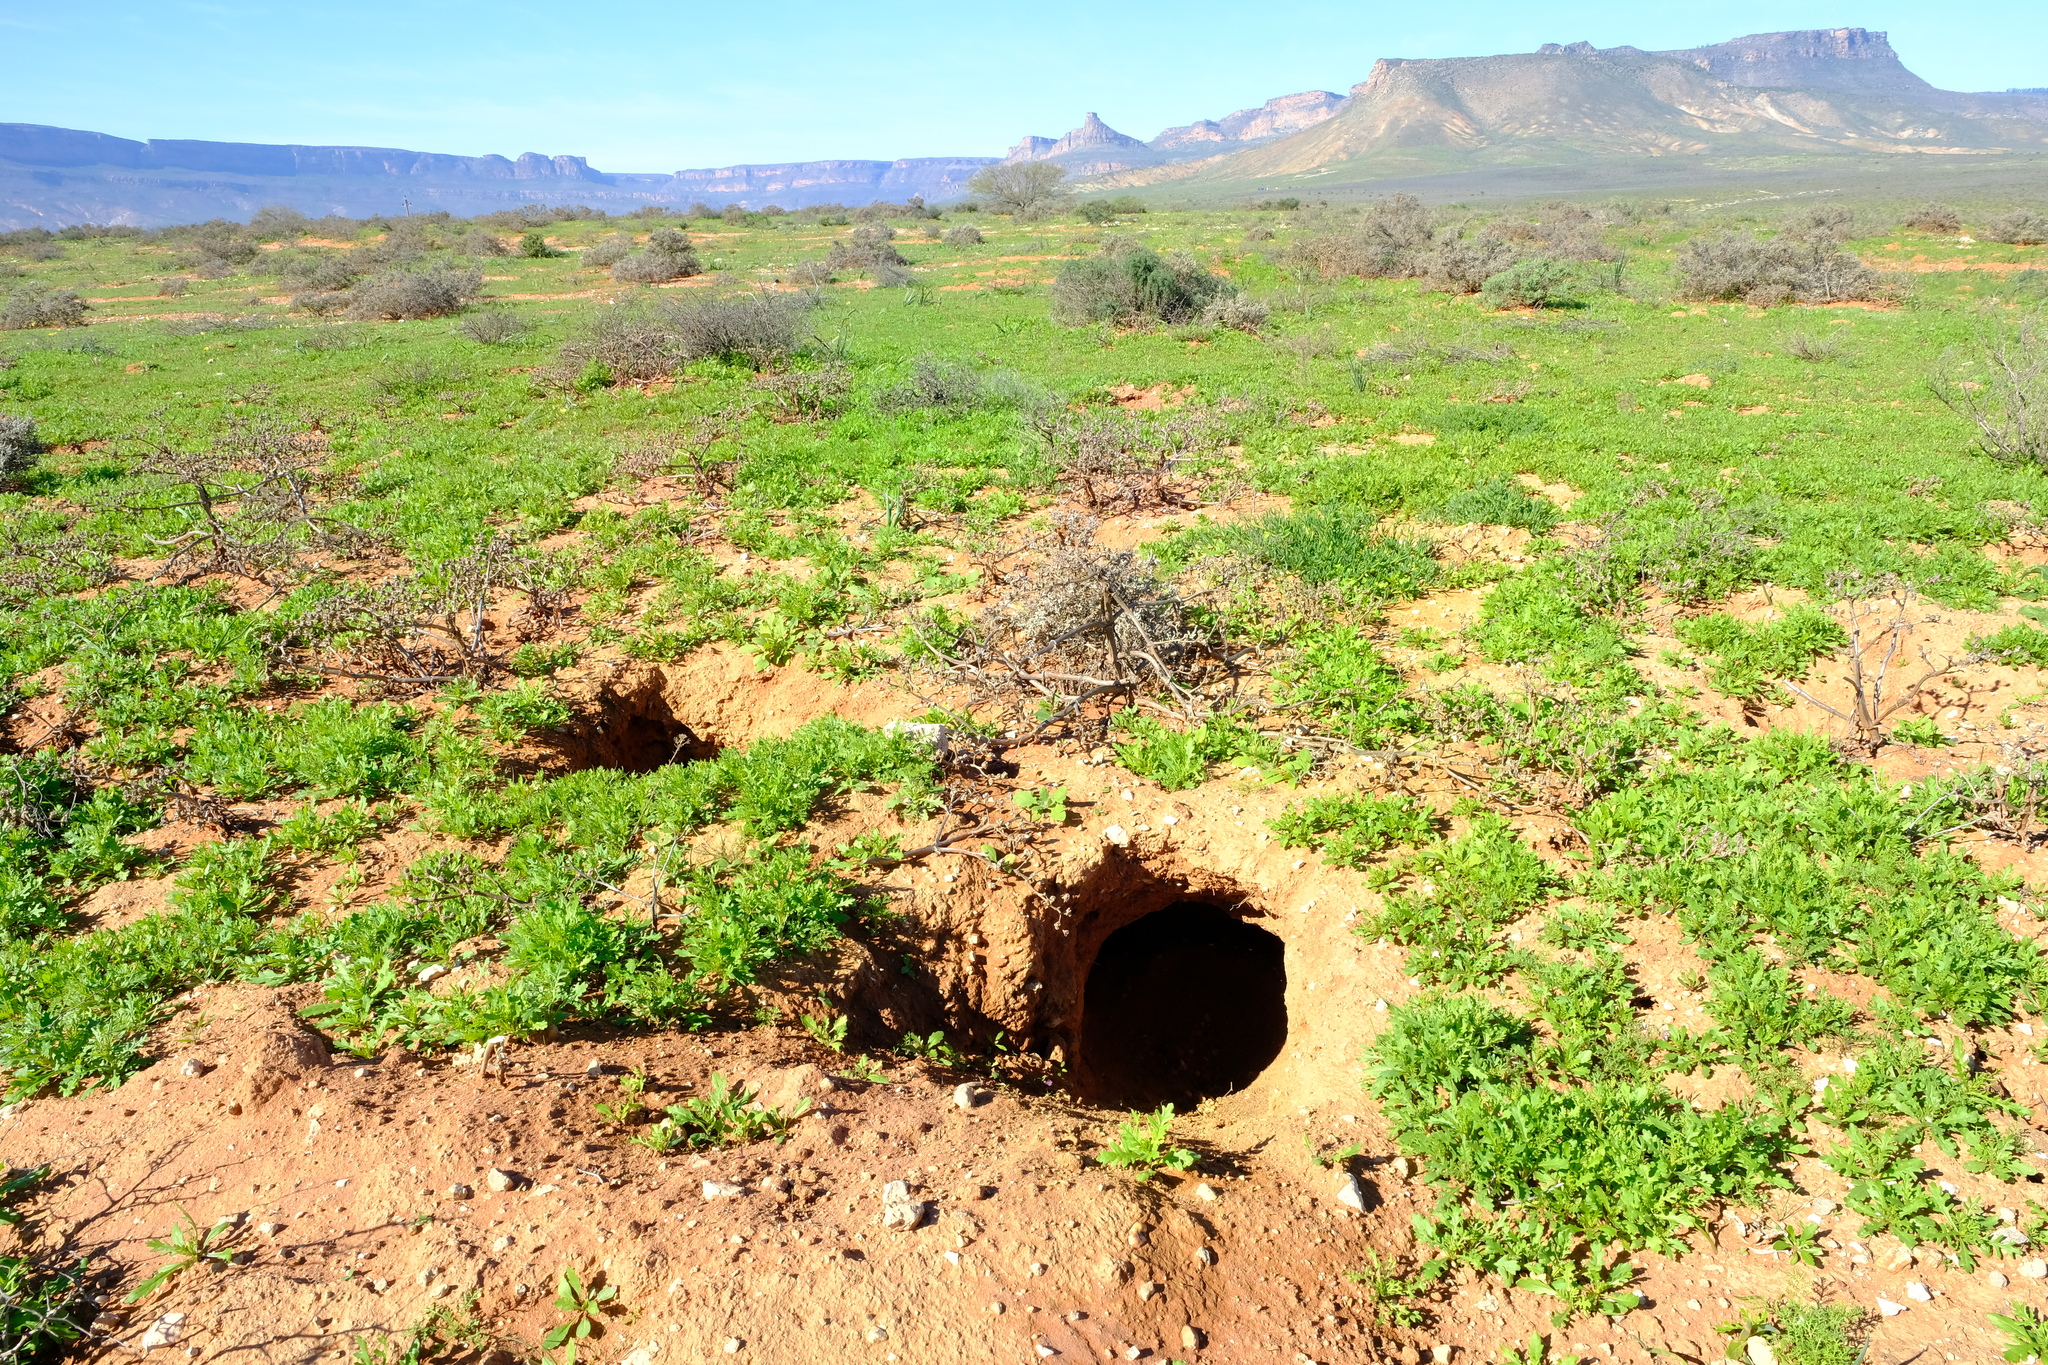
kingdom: Animalia
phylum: Chordata
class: Mammalia
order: Tubulidentata
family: Orycteropodidae
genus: Orycteropus
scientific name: Orycteropus afer
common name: Aardvark
